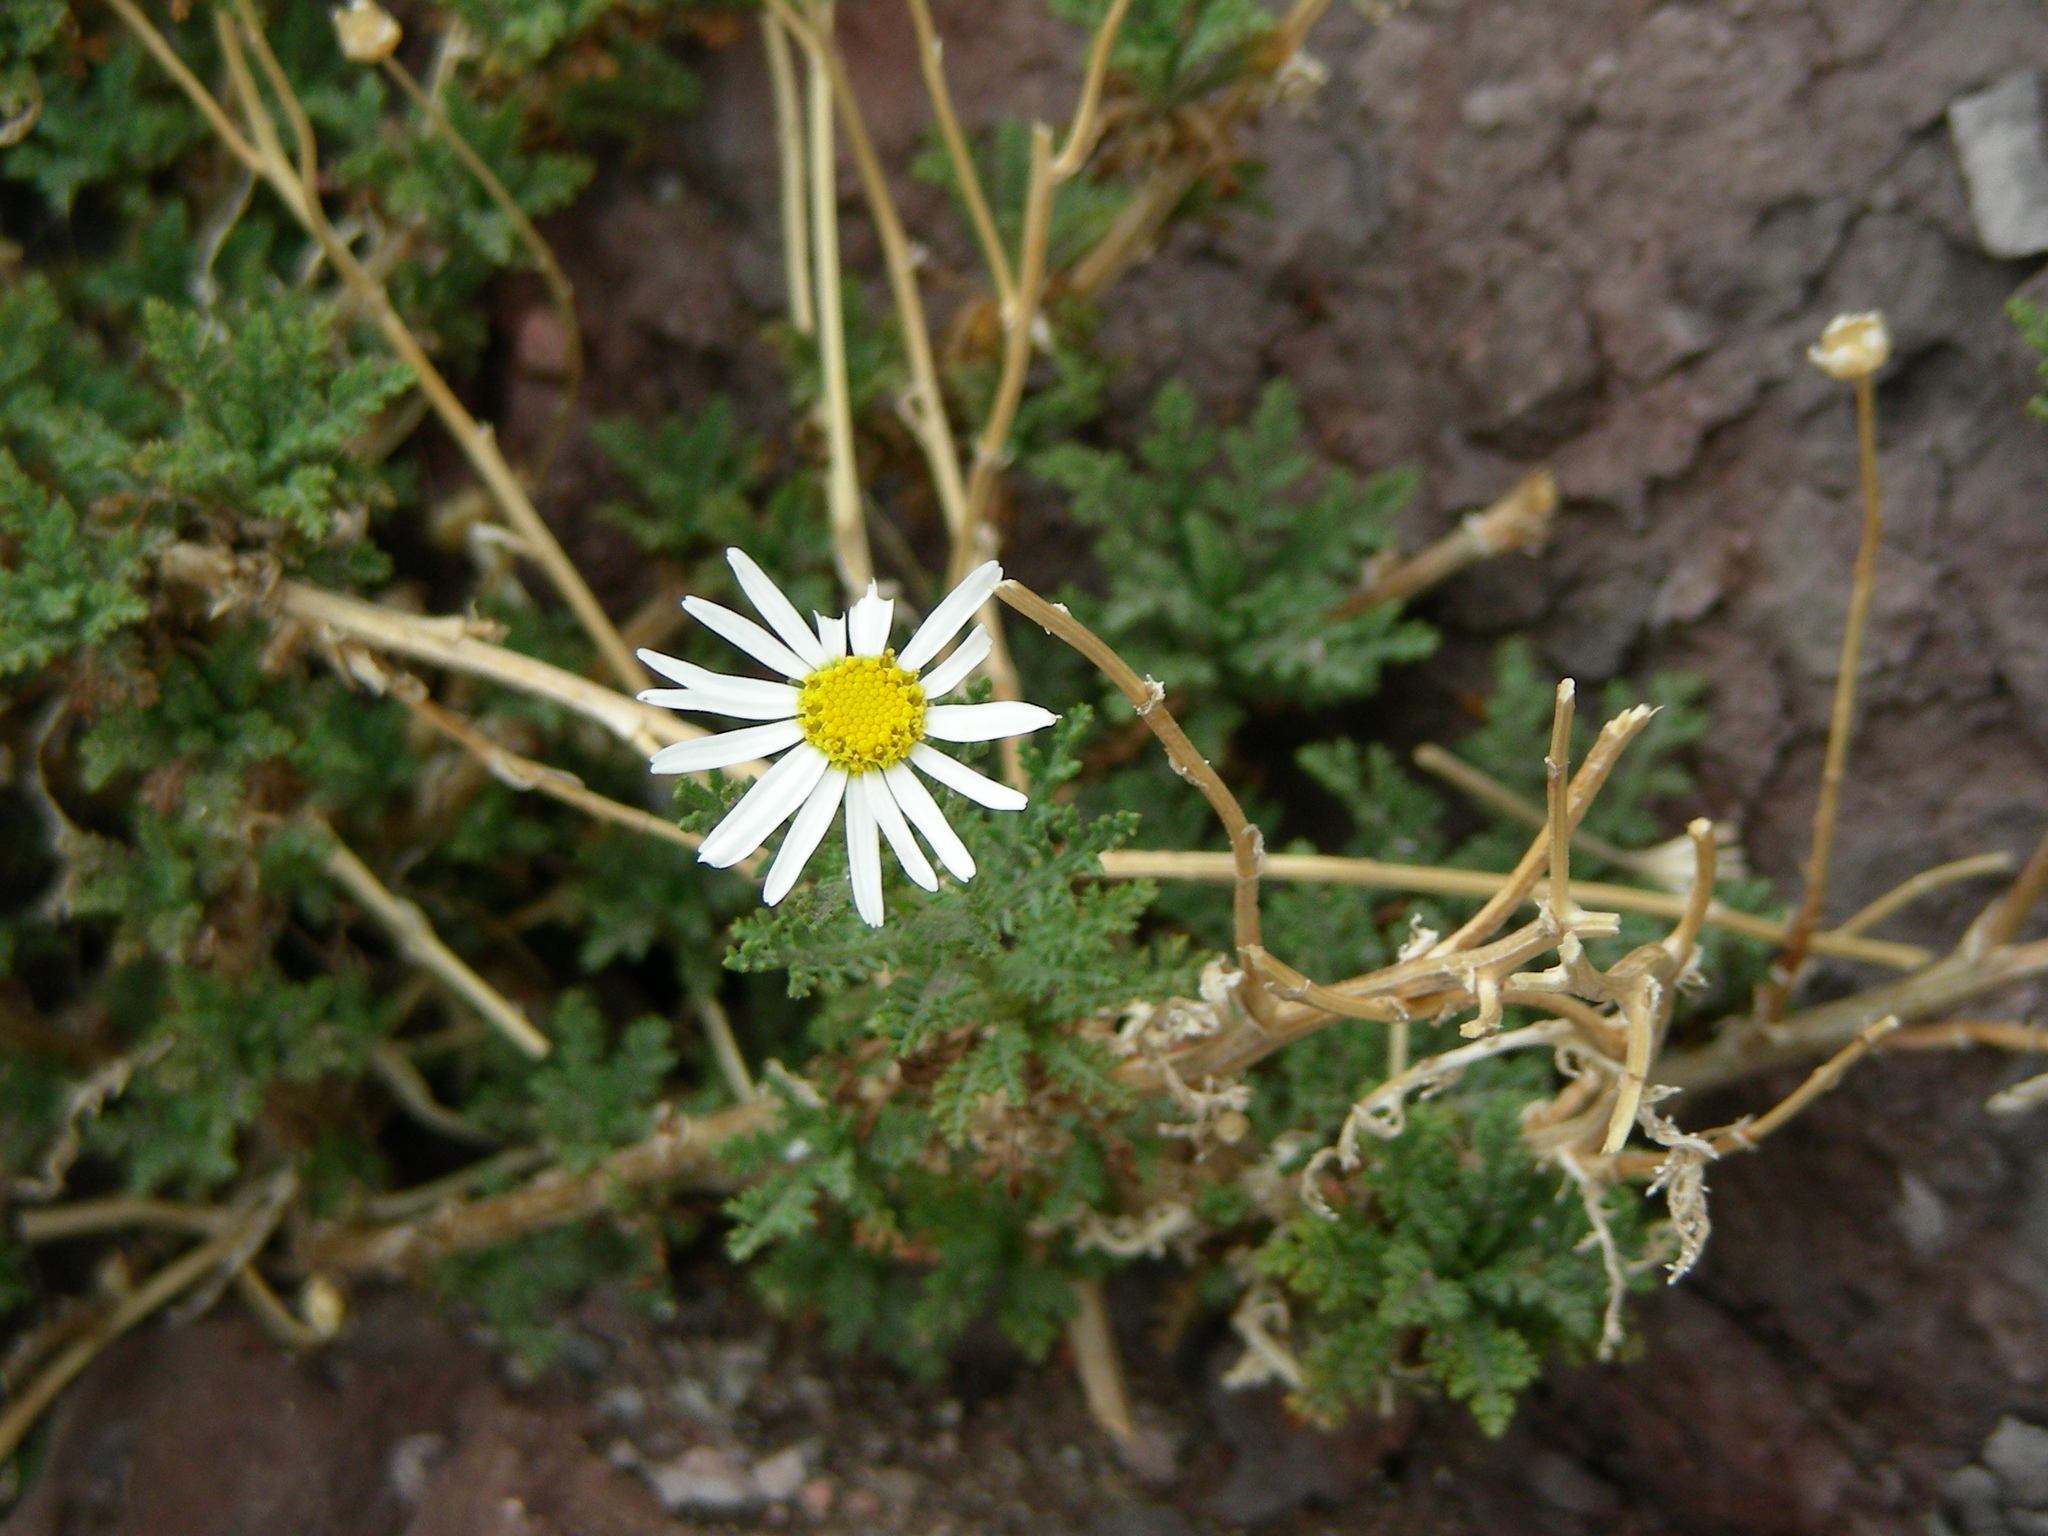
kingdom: Plantae
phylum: Tracheophyta
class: Magnoliopsida
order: Asterales
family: Asteraceae
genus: Argyranthemum
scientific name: Argyranthemum tenerifae
